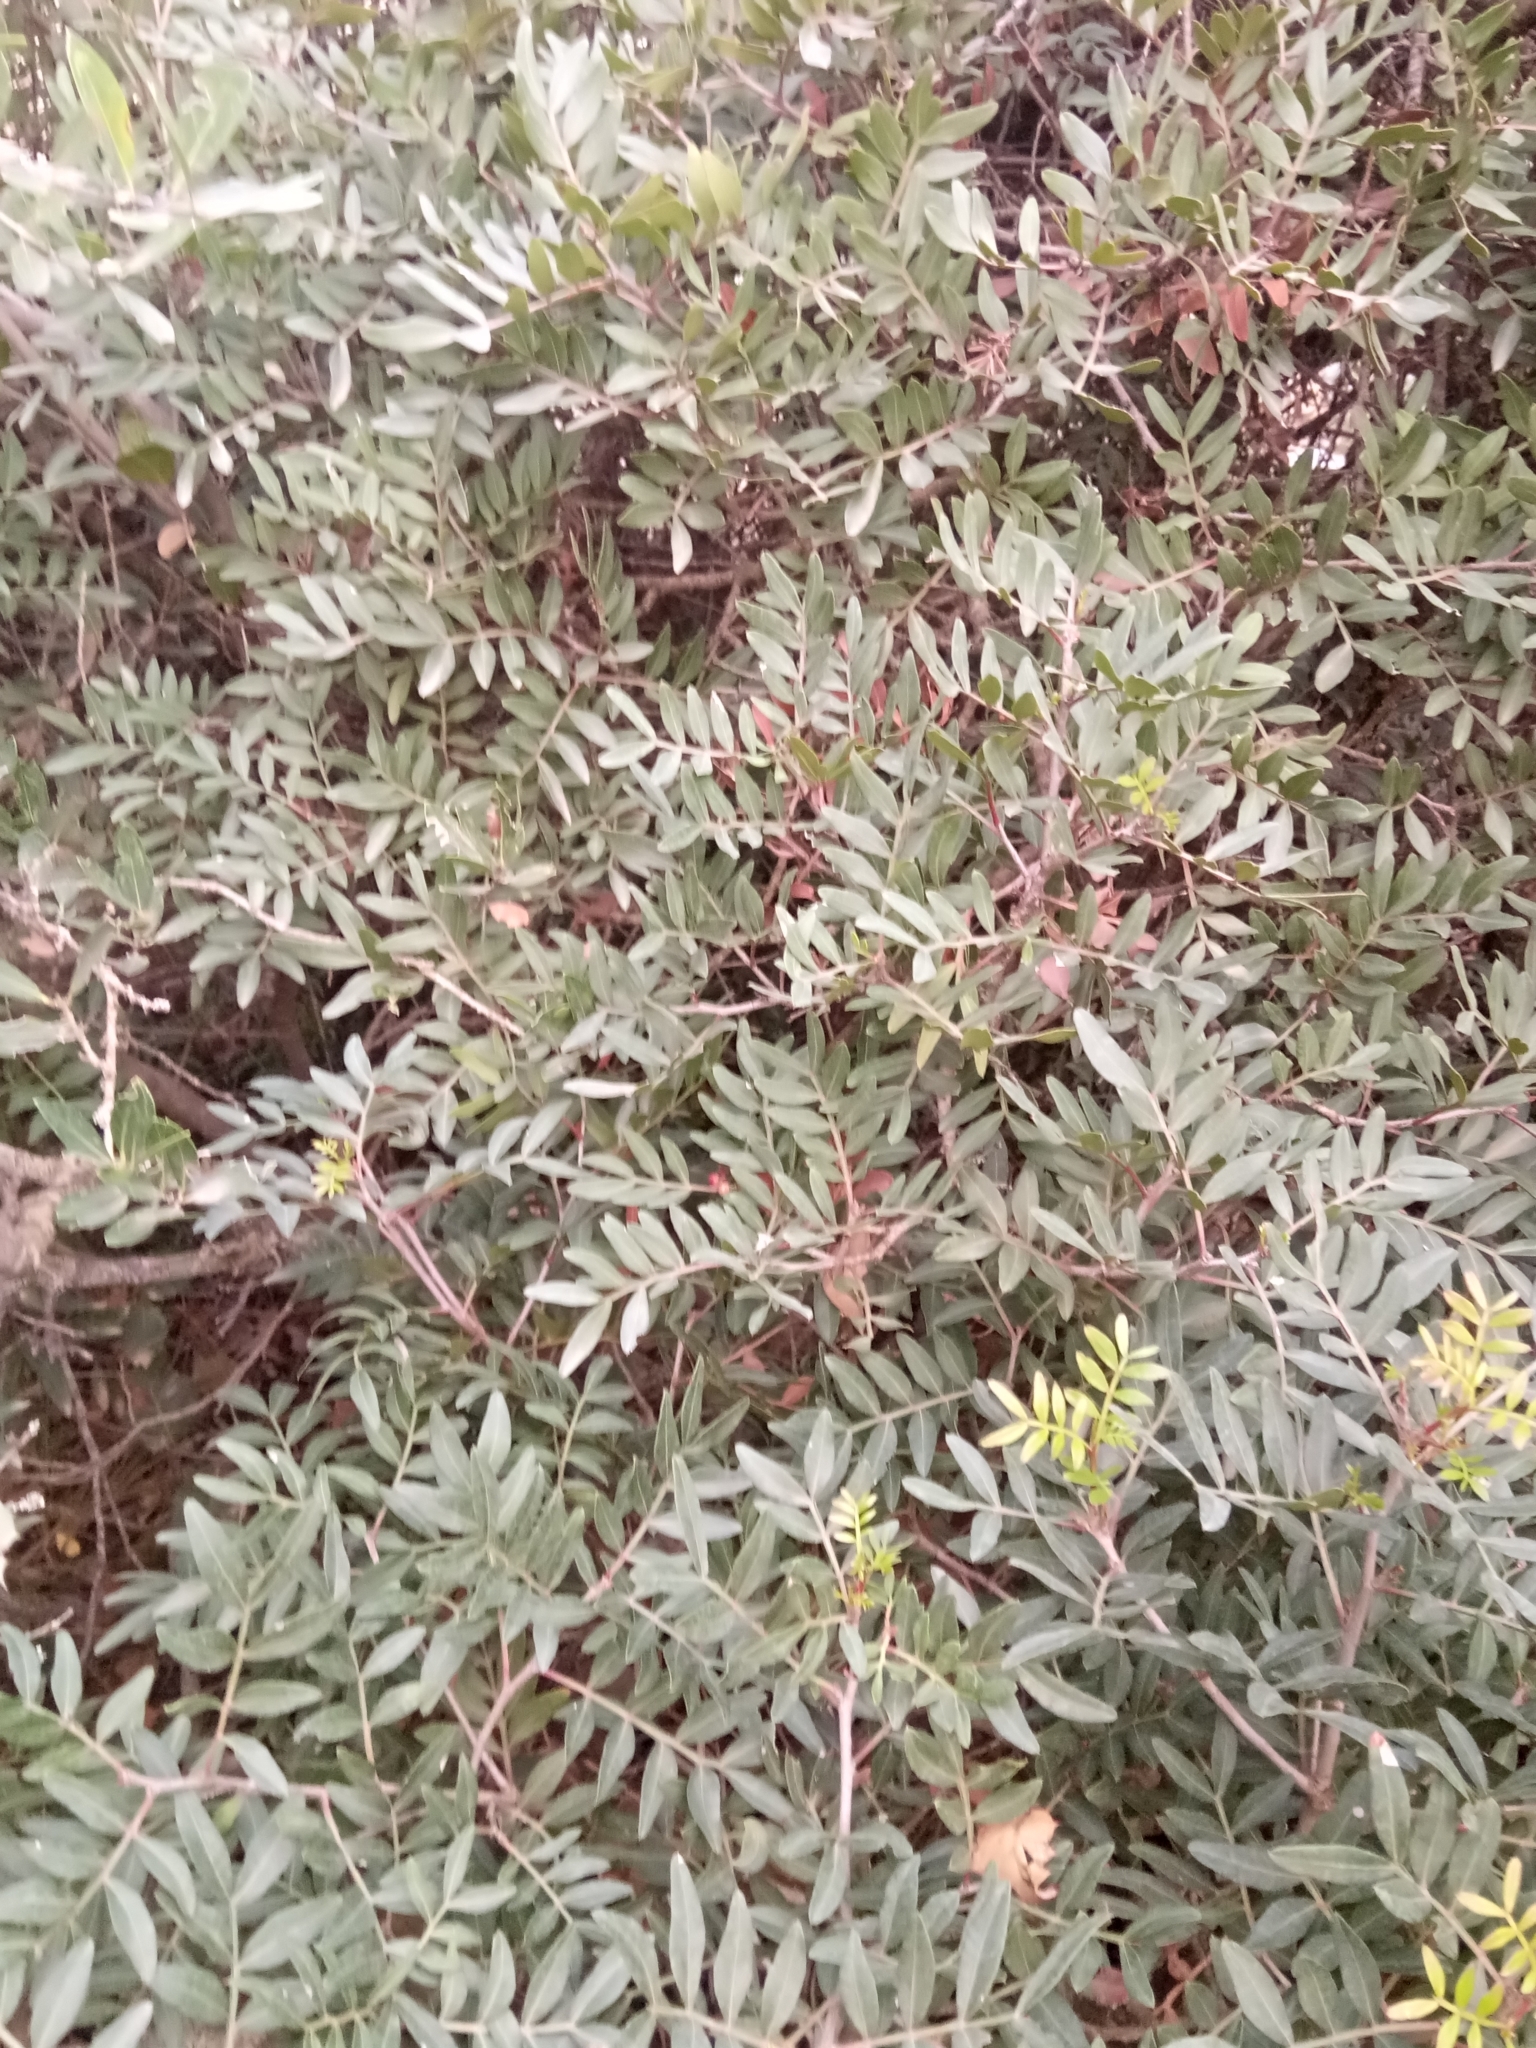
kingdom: Plantae
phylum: Tracheophyta
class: Magnoliopsida
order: Sapindales
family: Anacardiaceae
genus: Pistacia
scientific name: Pistacia lentiscus
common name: Lentisk
